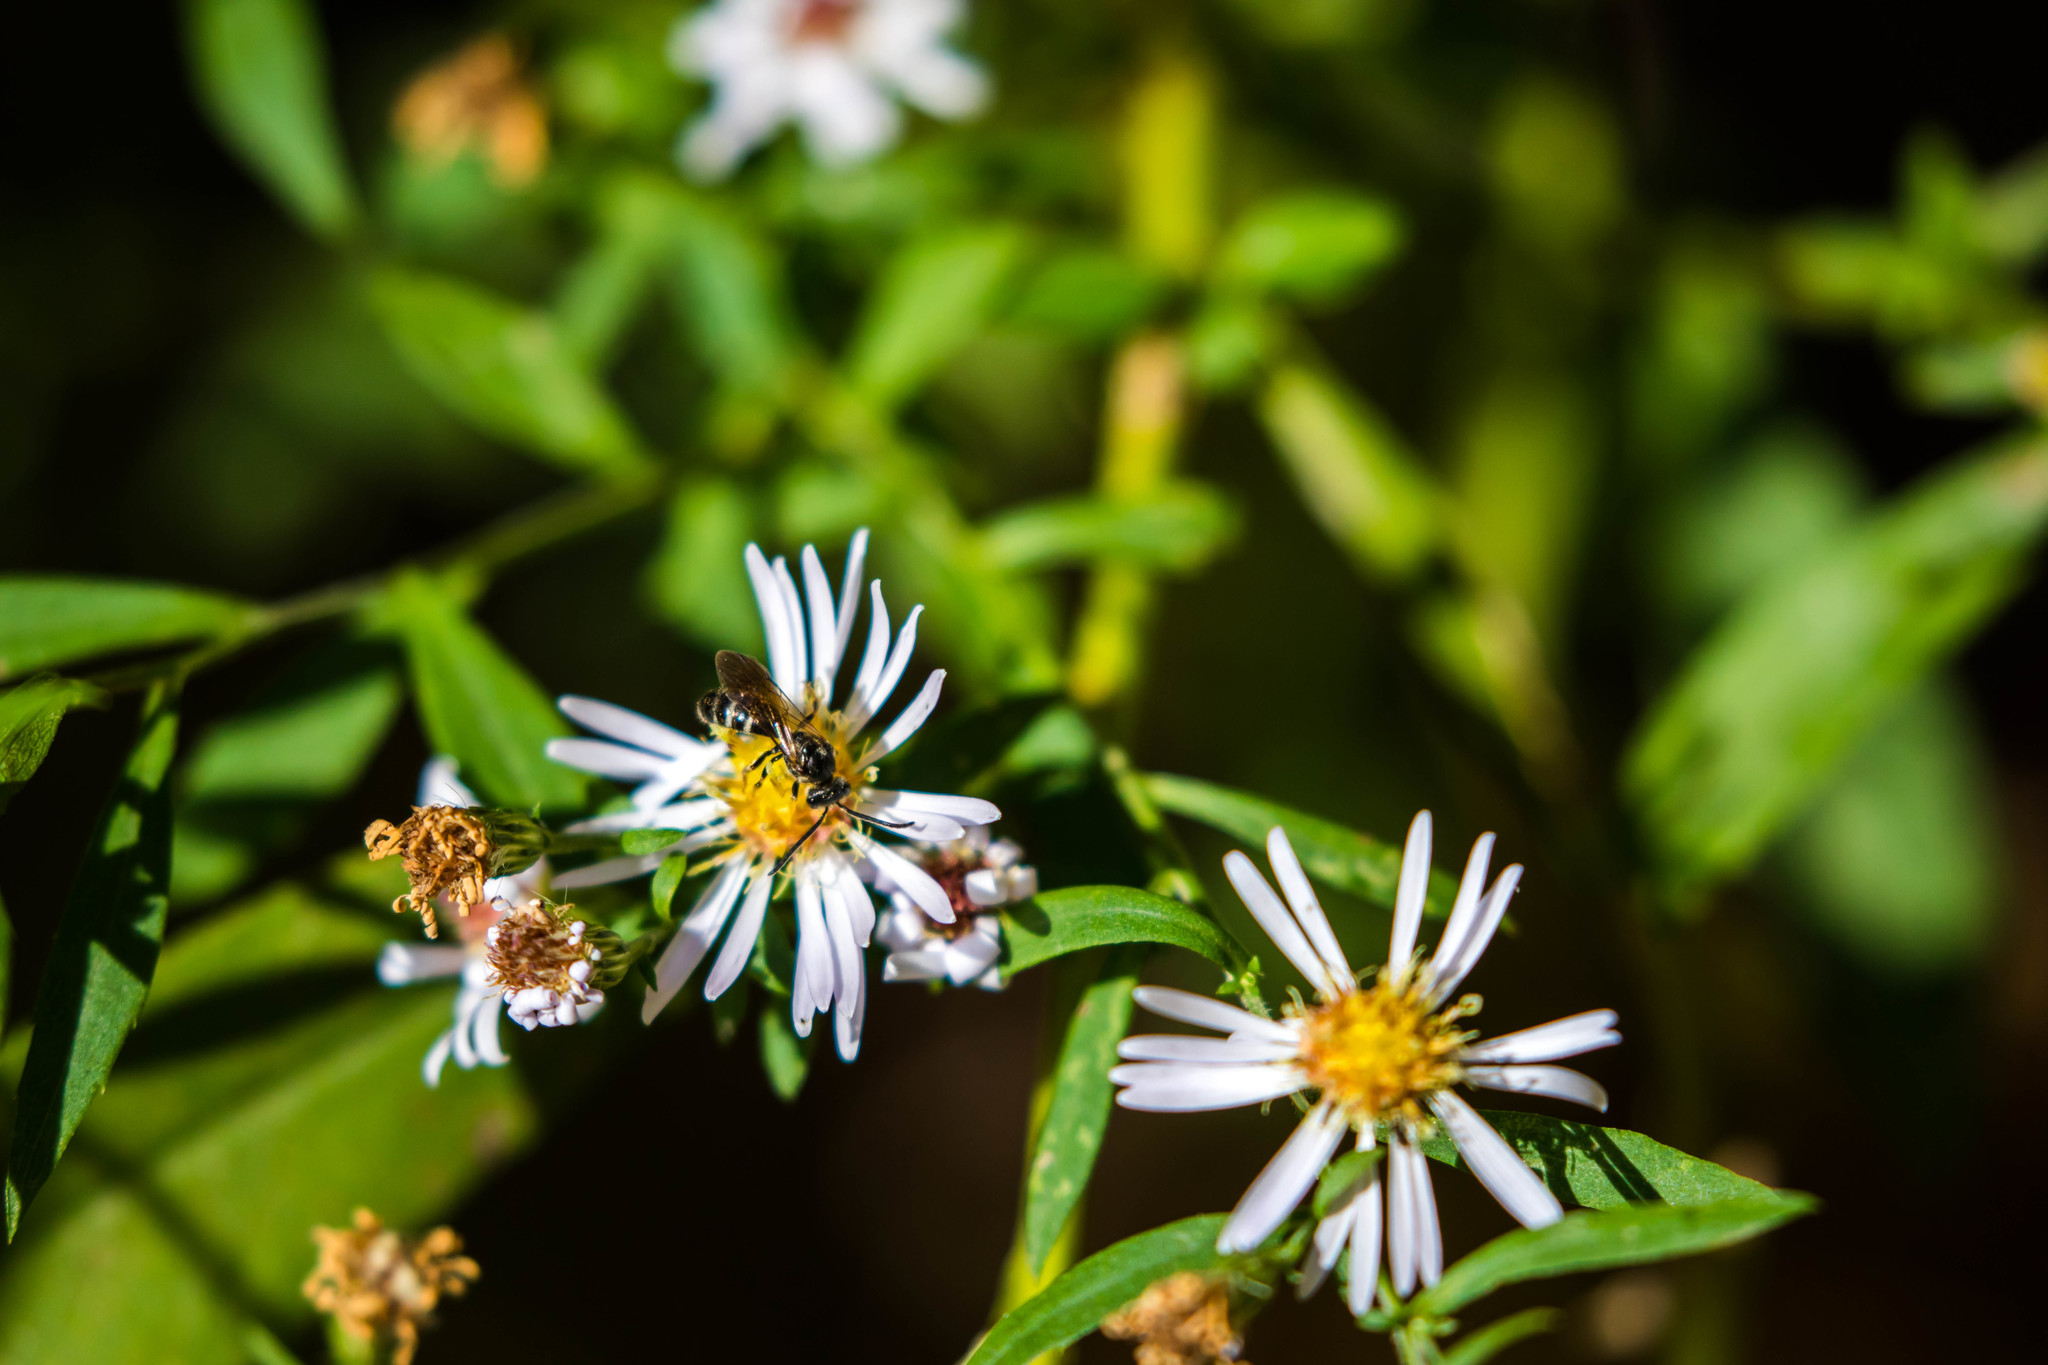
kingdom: Animalia
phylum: Arthropoda
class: Insecta
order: Hymenoptera
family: Halictidae
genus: Lasioglossum
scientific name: Lasioglossum fuscipenne
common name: Brown-winged sweat bee
